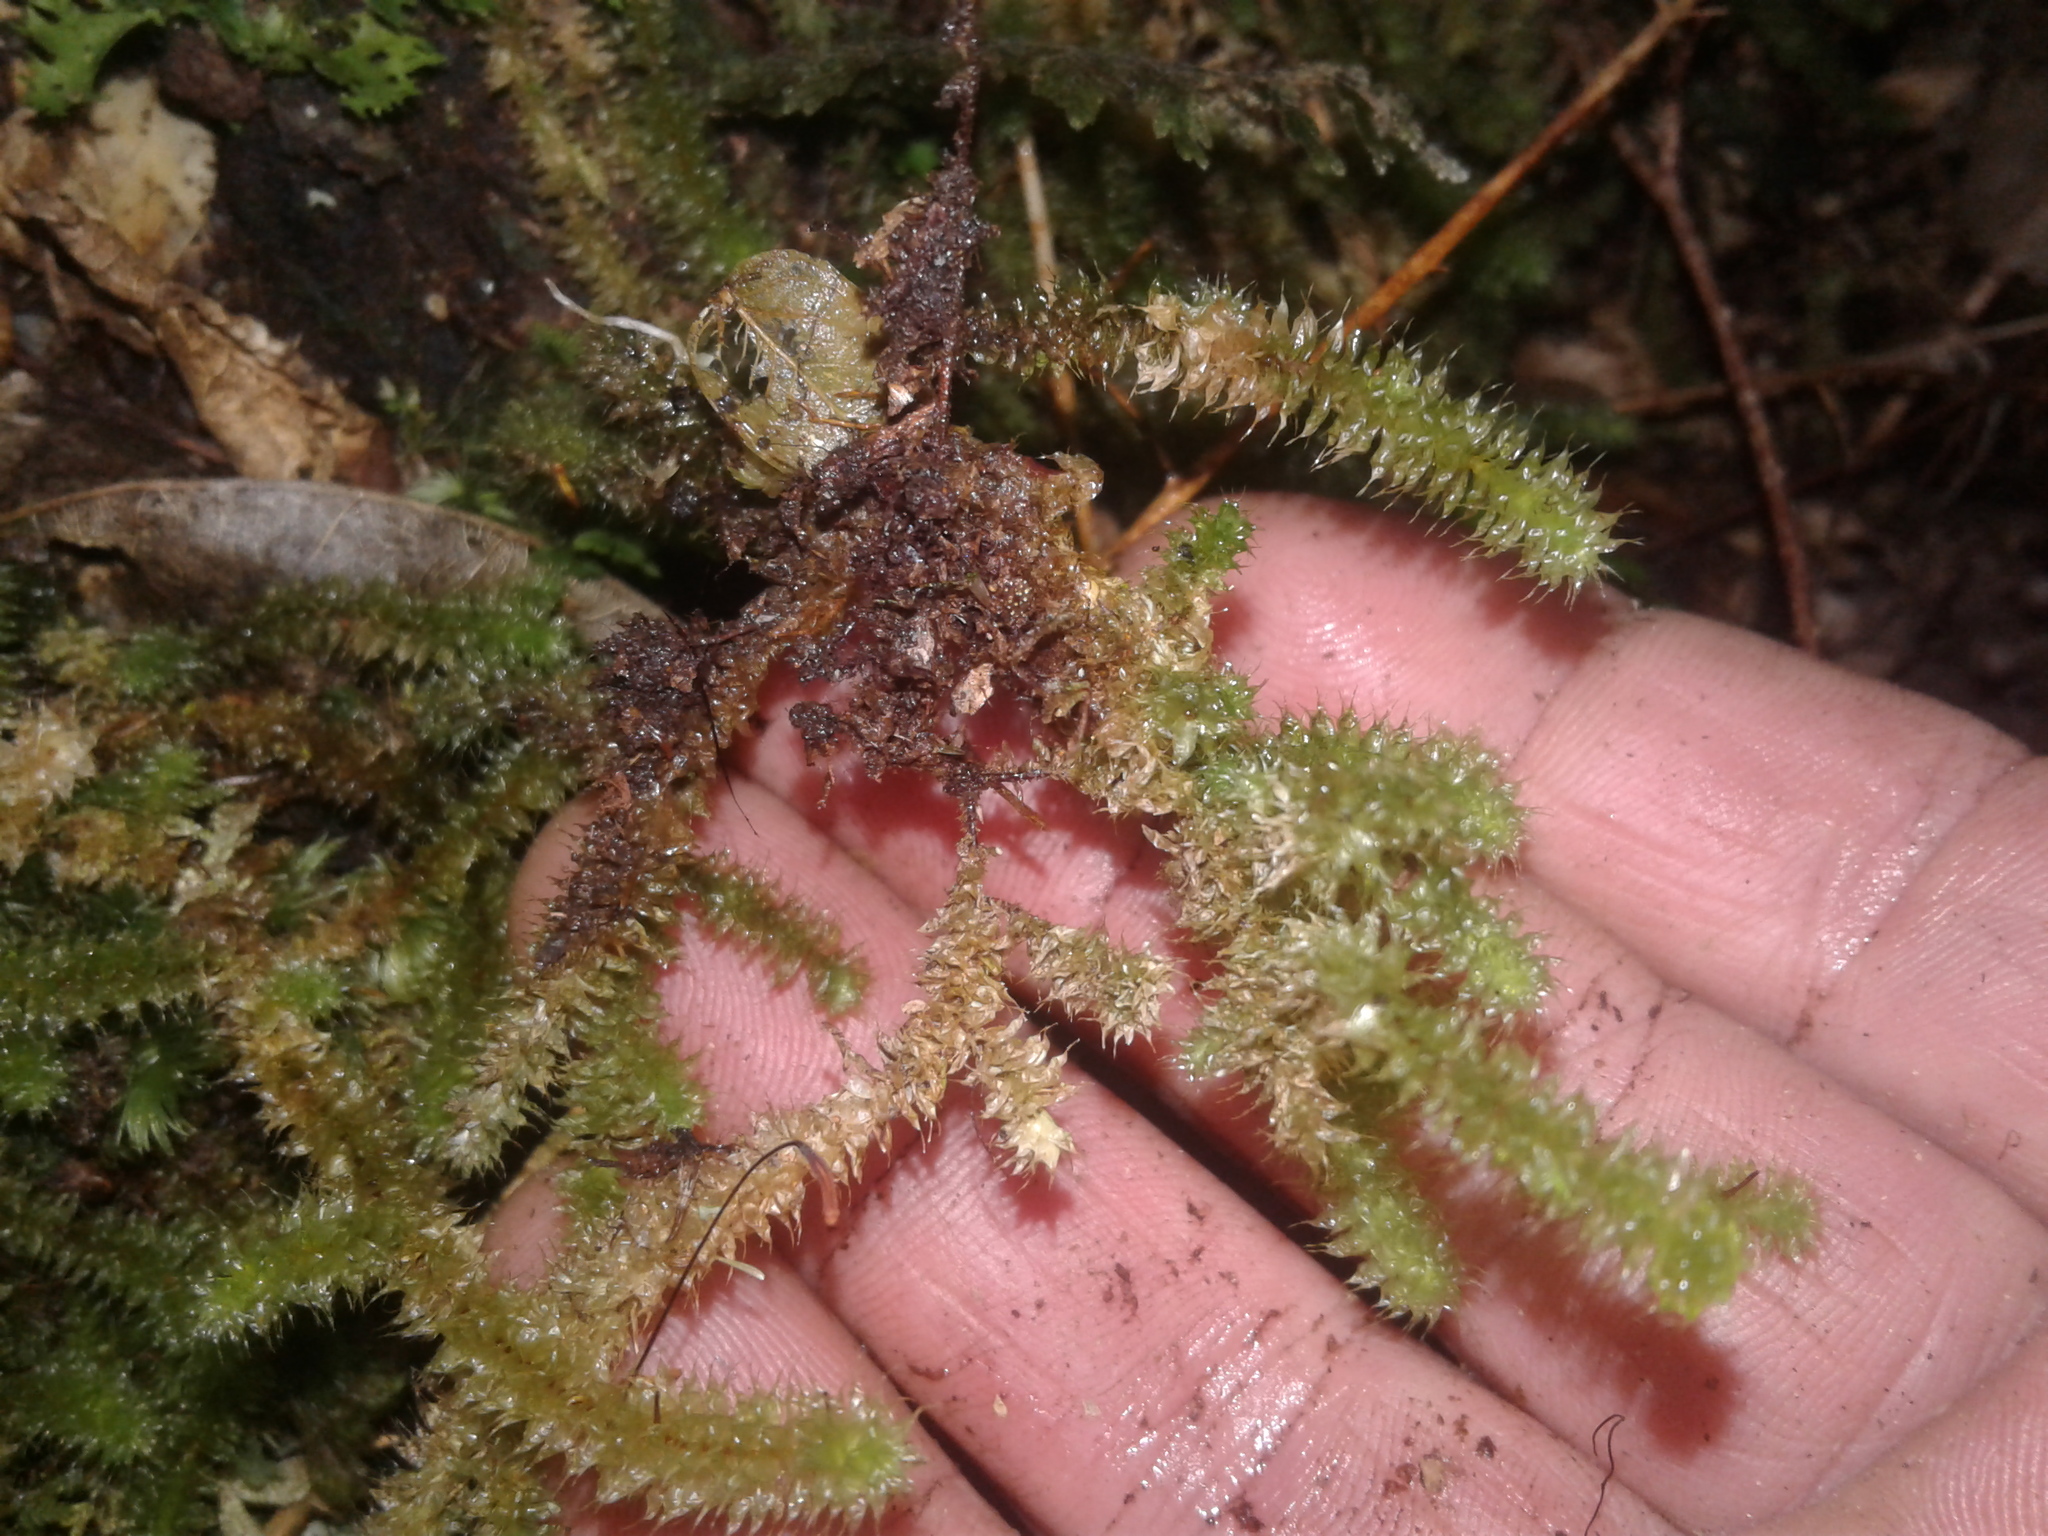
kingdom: Plantae
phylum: Bryophyta
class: Bryopsida
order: Ptychomniales
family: Ptychomniaceae
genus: Ptychomnion
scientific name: Ptychomnion aciculare
